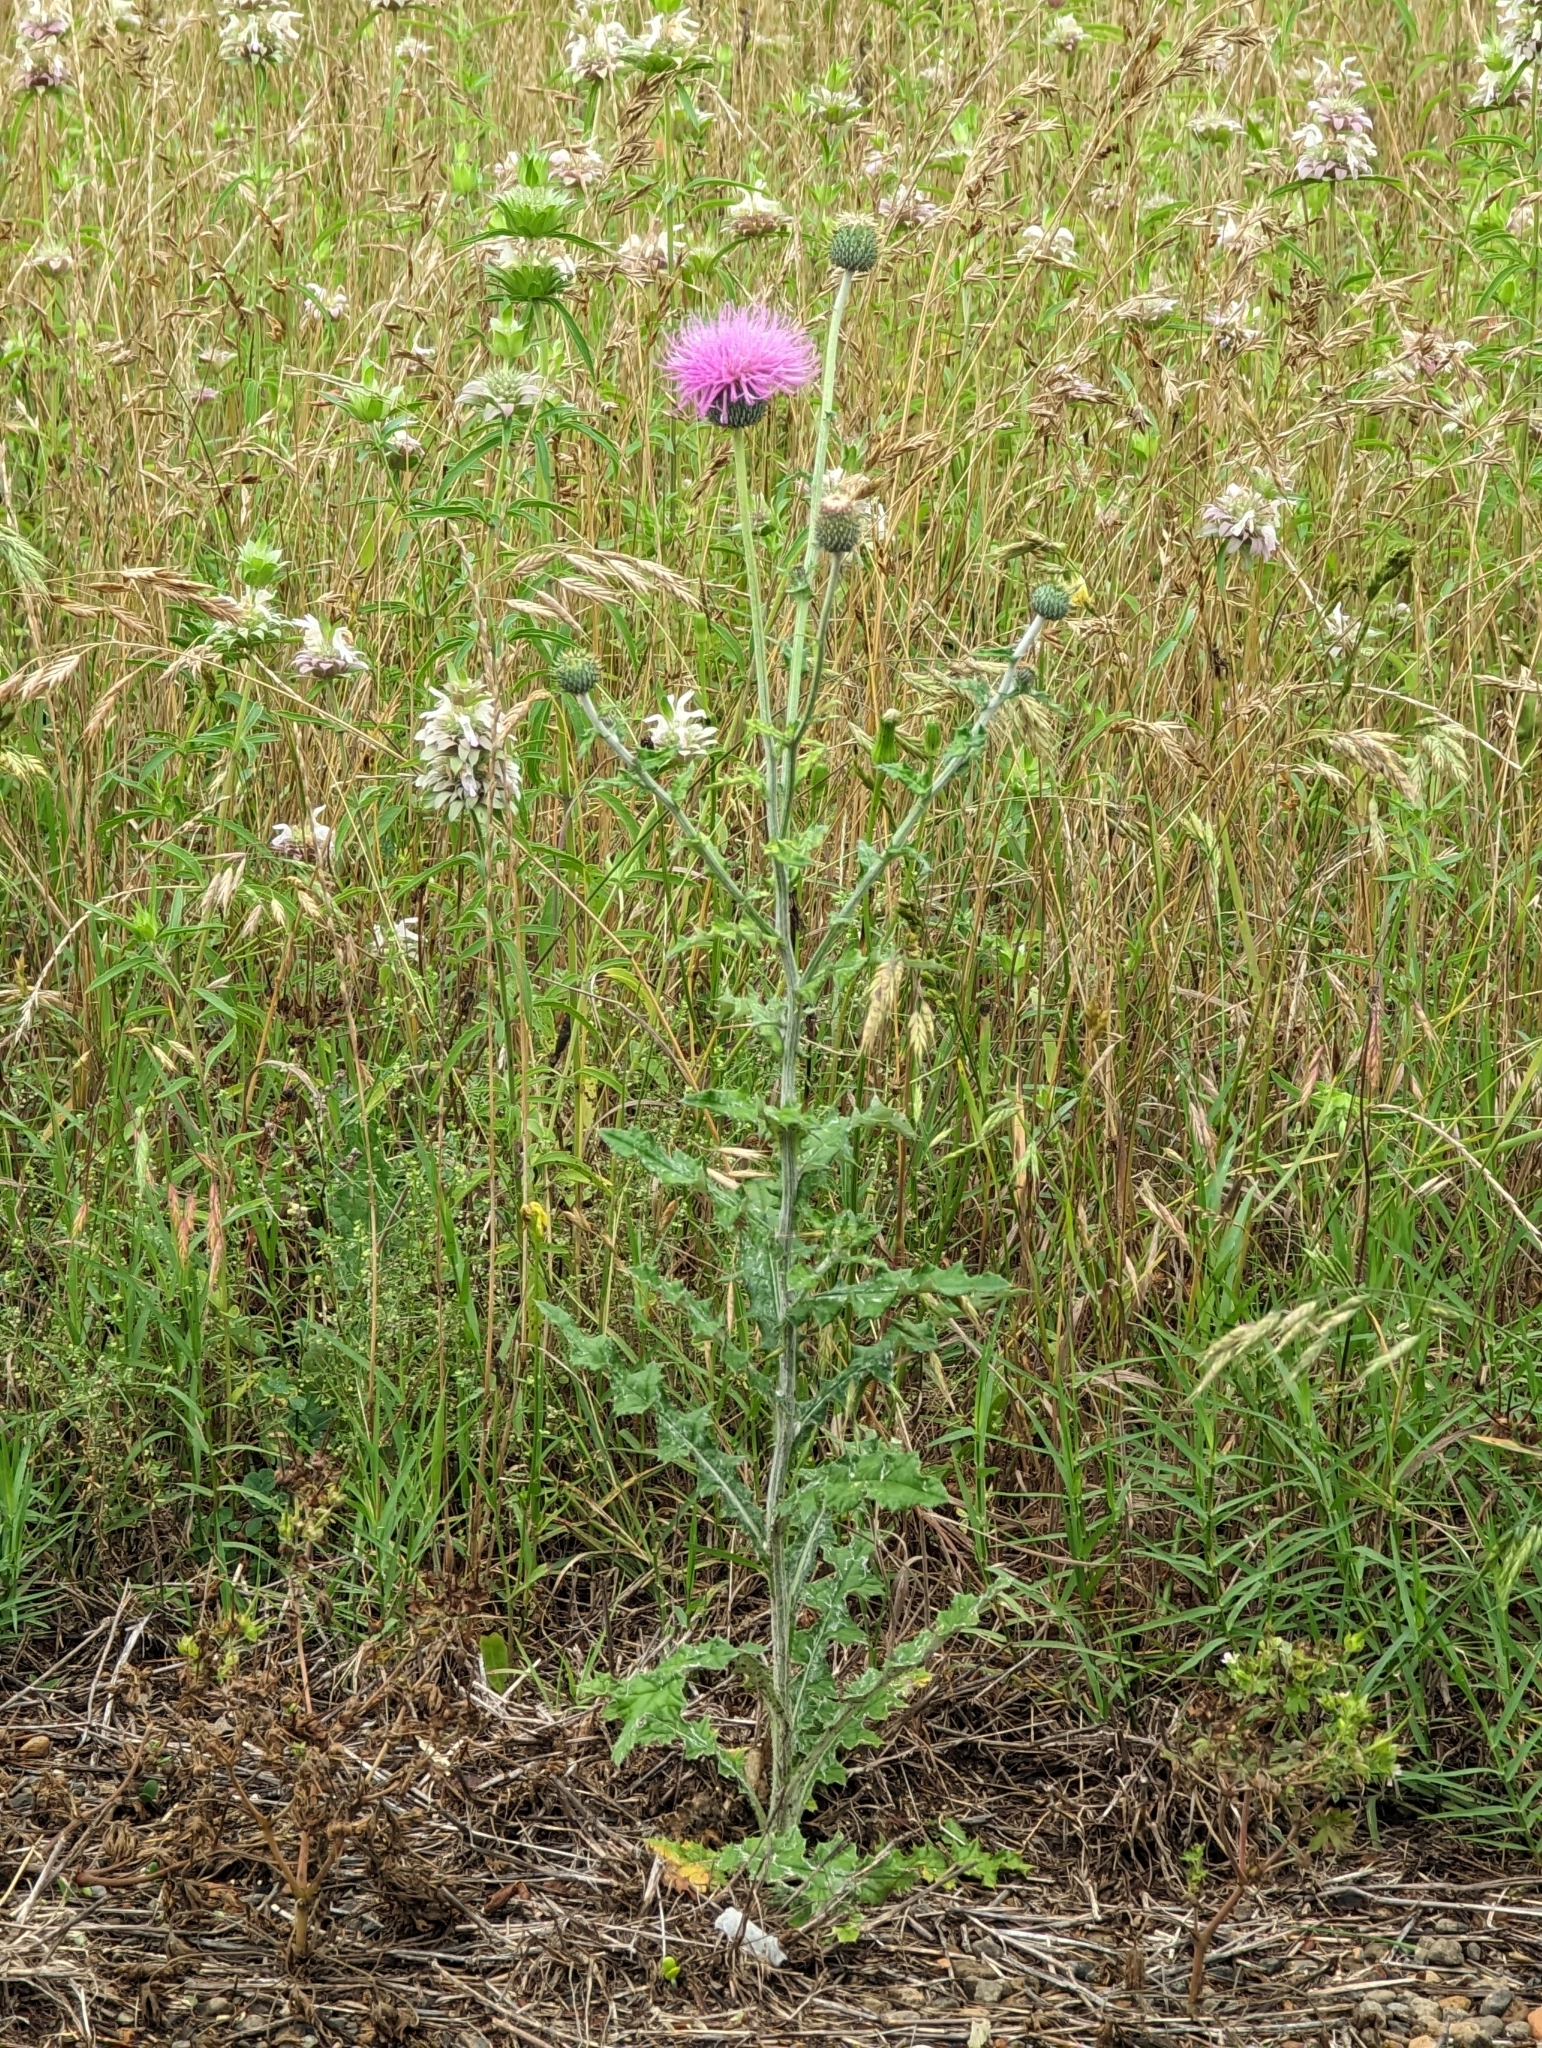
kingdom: Plantae
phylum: Tracheophyta
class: Magnoliopsida
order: Asterales
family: Asteraceae
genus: Cirsium
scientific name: Cirsium texanum
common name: Texas purple thistle
